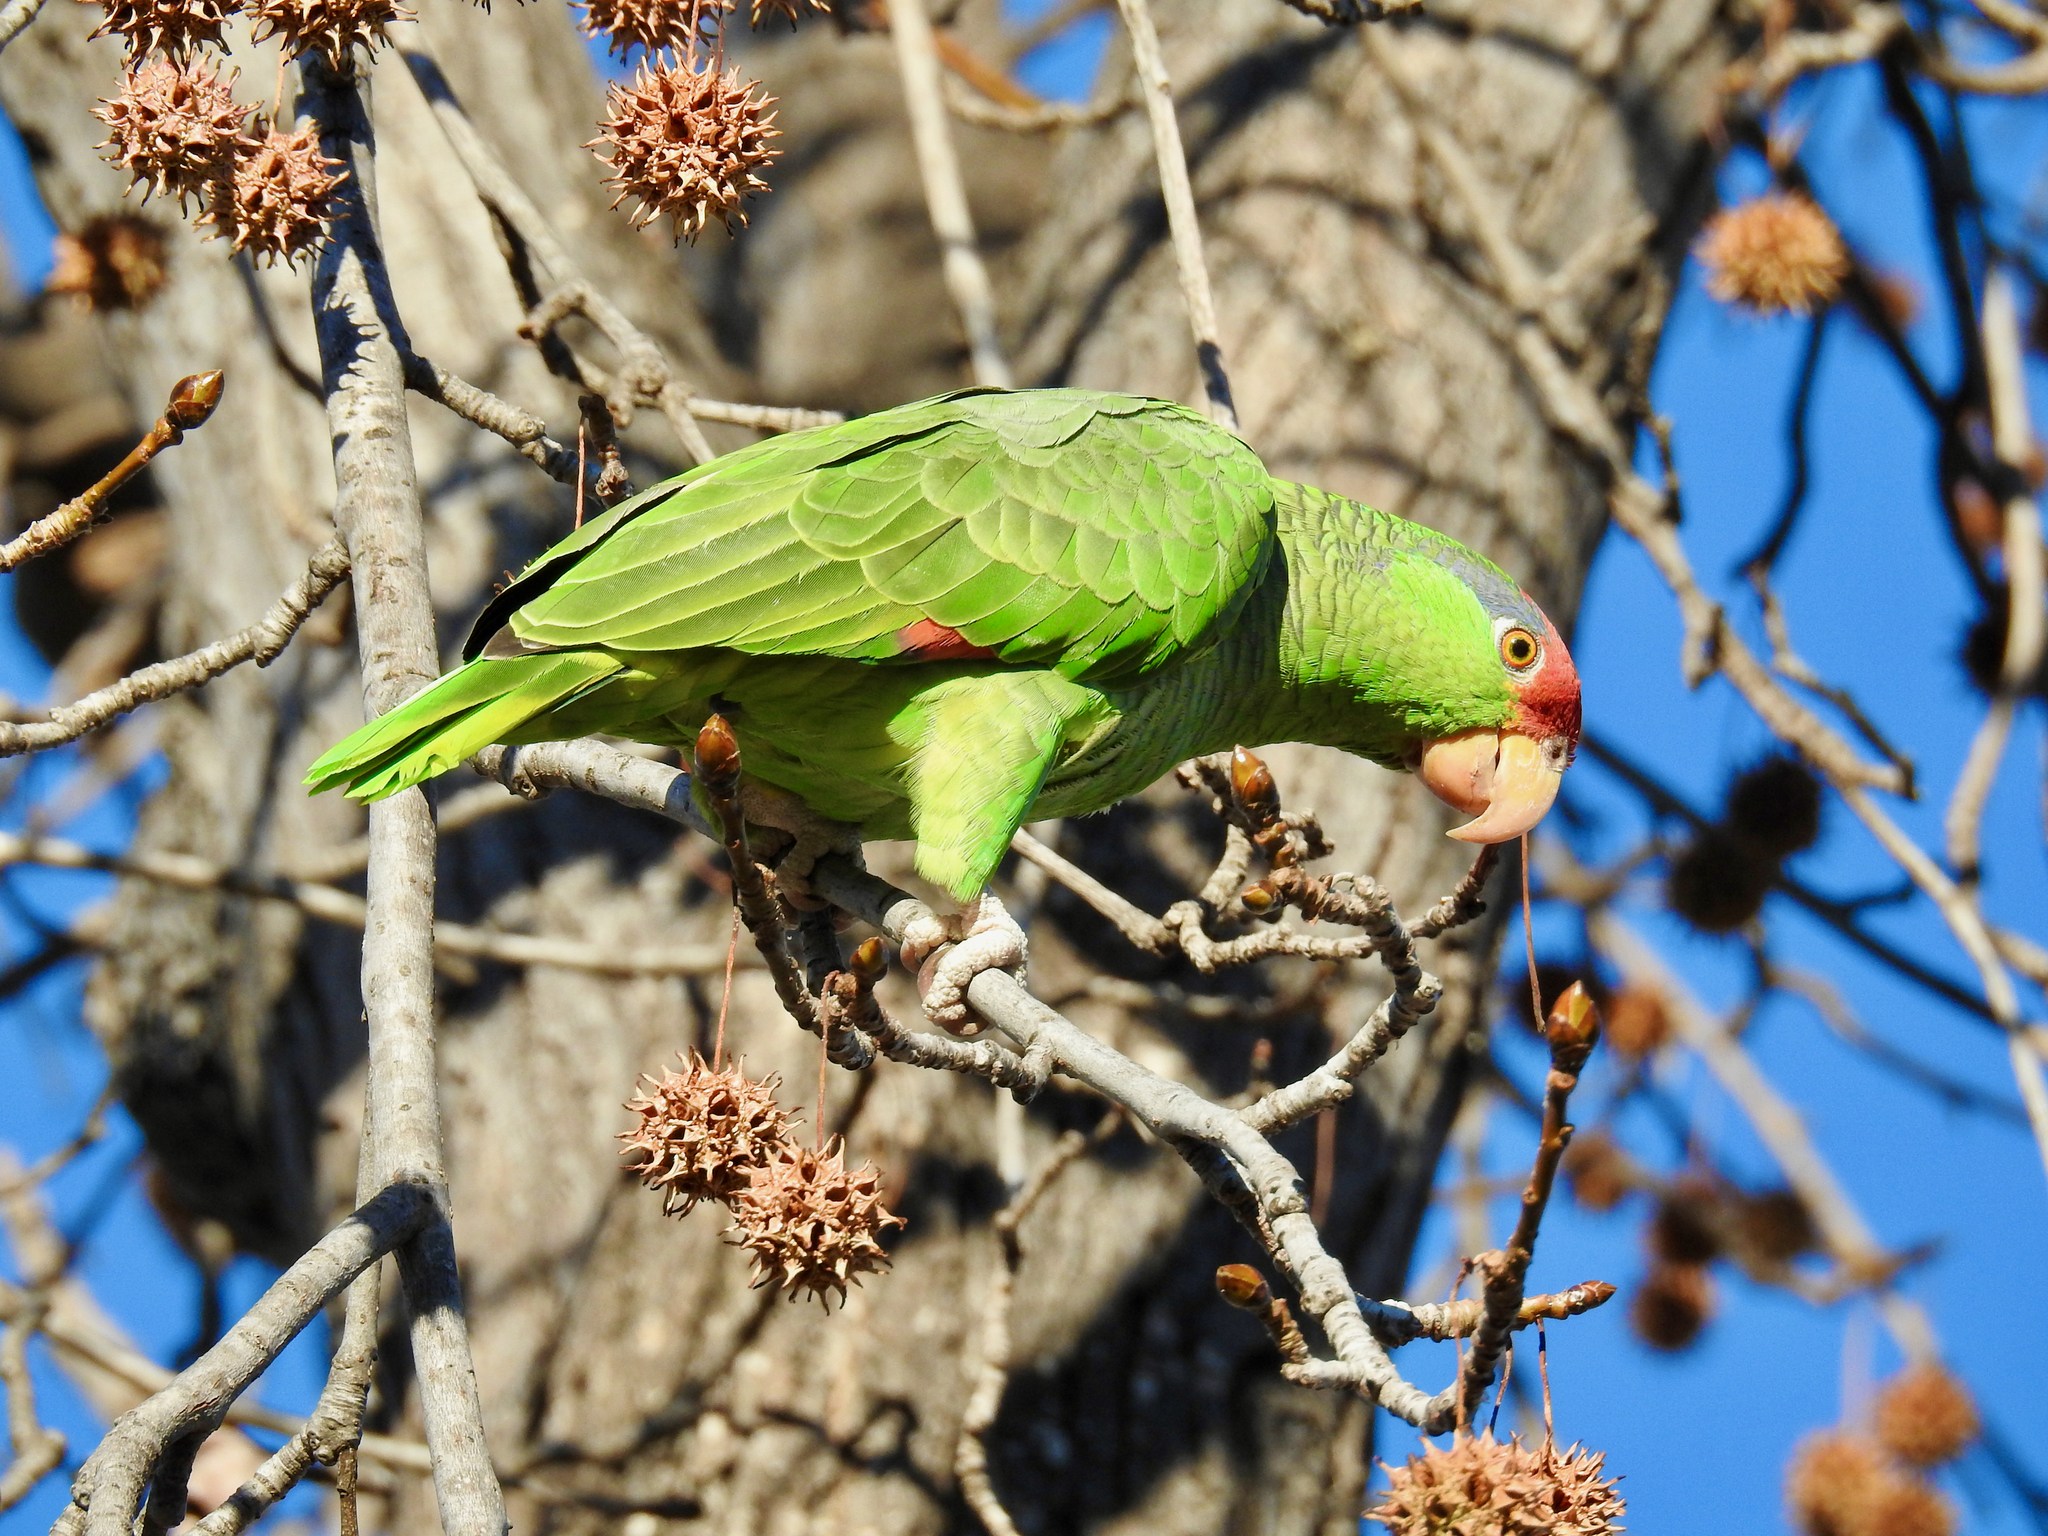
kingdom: Animalia
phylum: Chordata
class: Aves
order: Psittaciformes
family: Psittacidae
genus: Amazona
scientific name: Amazona viridigenalis
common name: Red-crowned amazon
